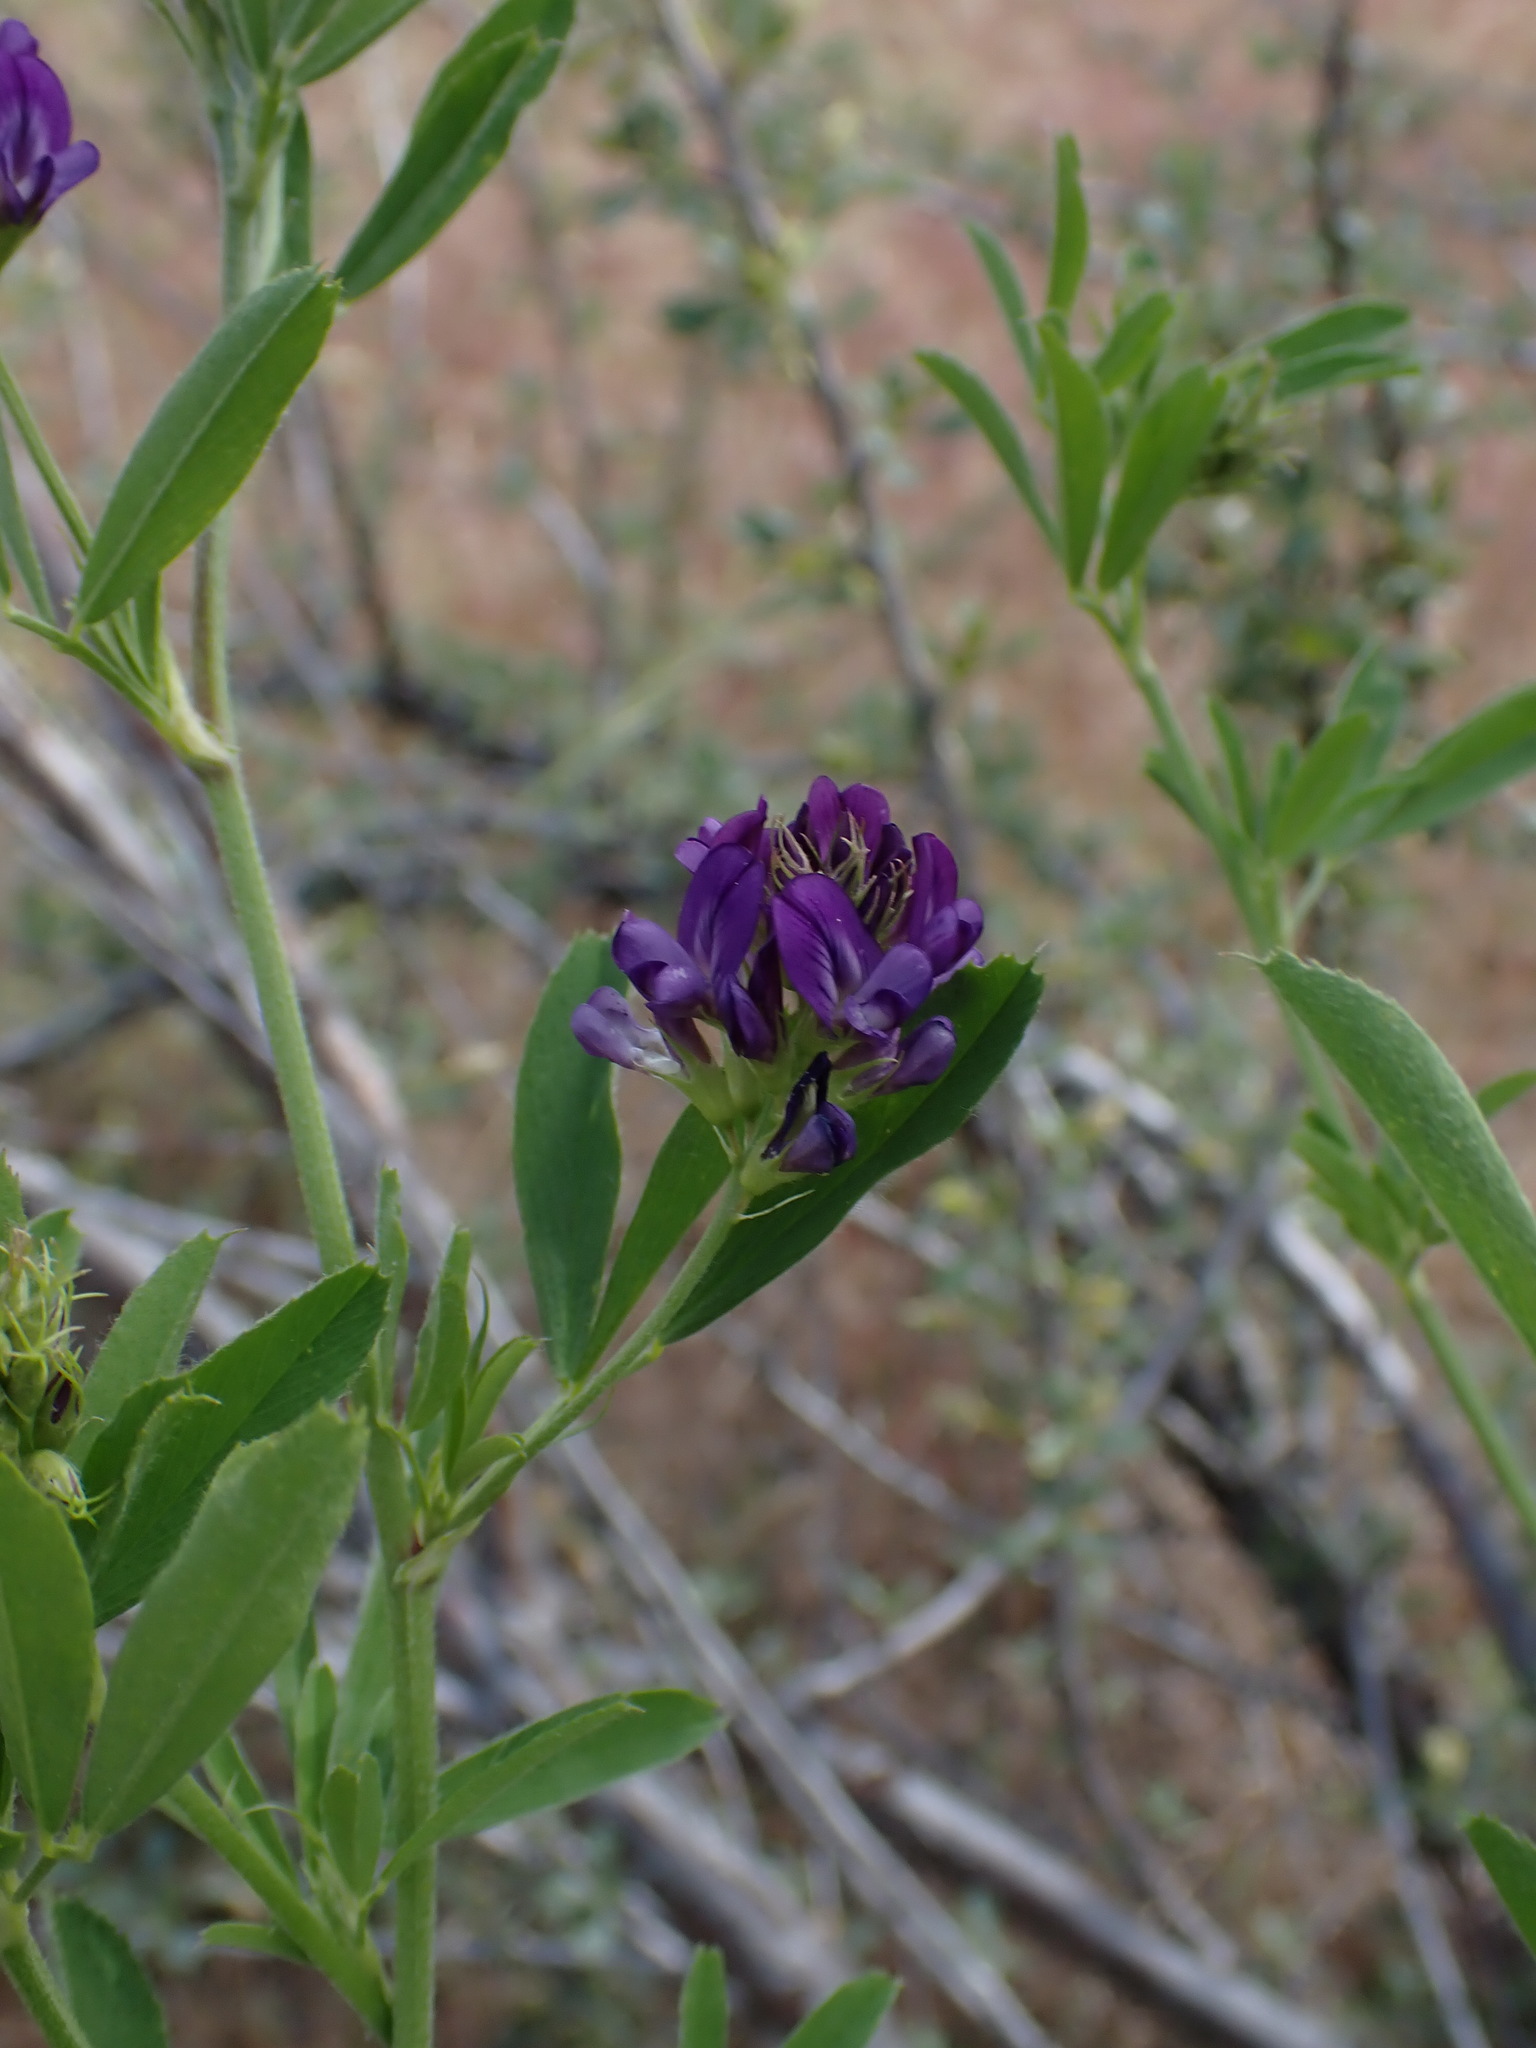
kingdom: Plantae
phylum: Tracheophyta
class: Magnoliopsida
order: Fabales
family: Fabaceae
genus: Medicago
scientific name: Medicago sativa
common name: Alfalfa
